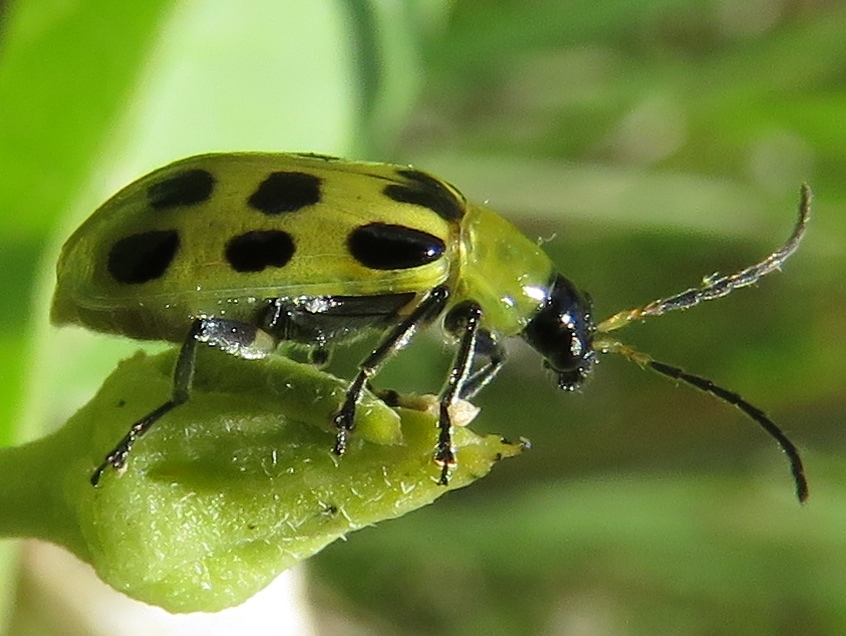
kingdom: Animalia
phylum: Arthropoda
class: Insecta
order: Coleoptera
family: Chrysomelidae
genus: Diabrotica
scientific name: Diabrotica undecimpunctata
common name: Spotted cucumber beetle
